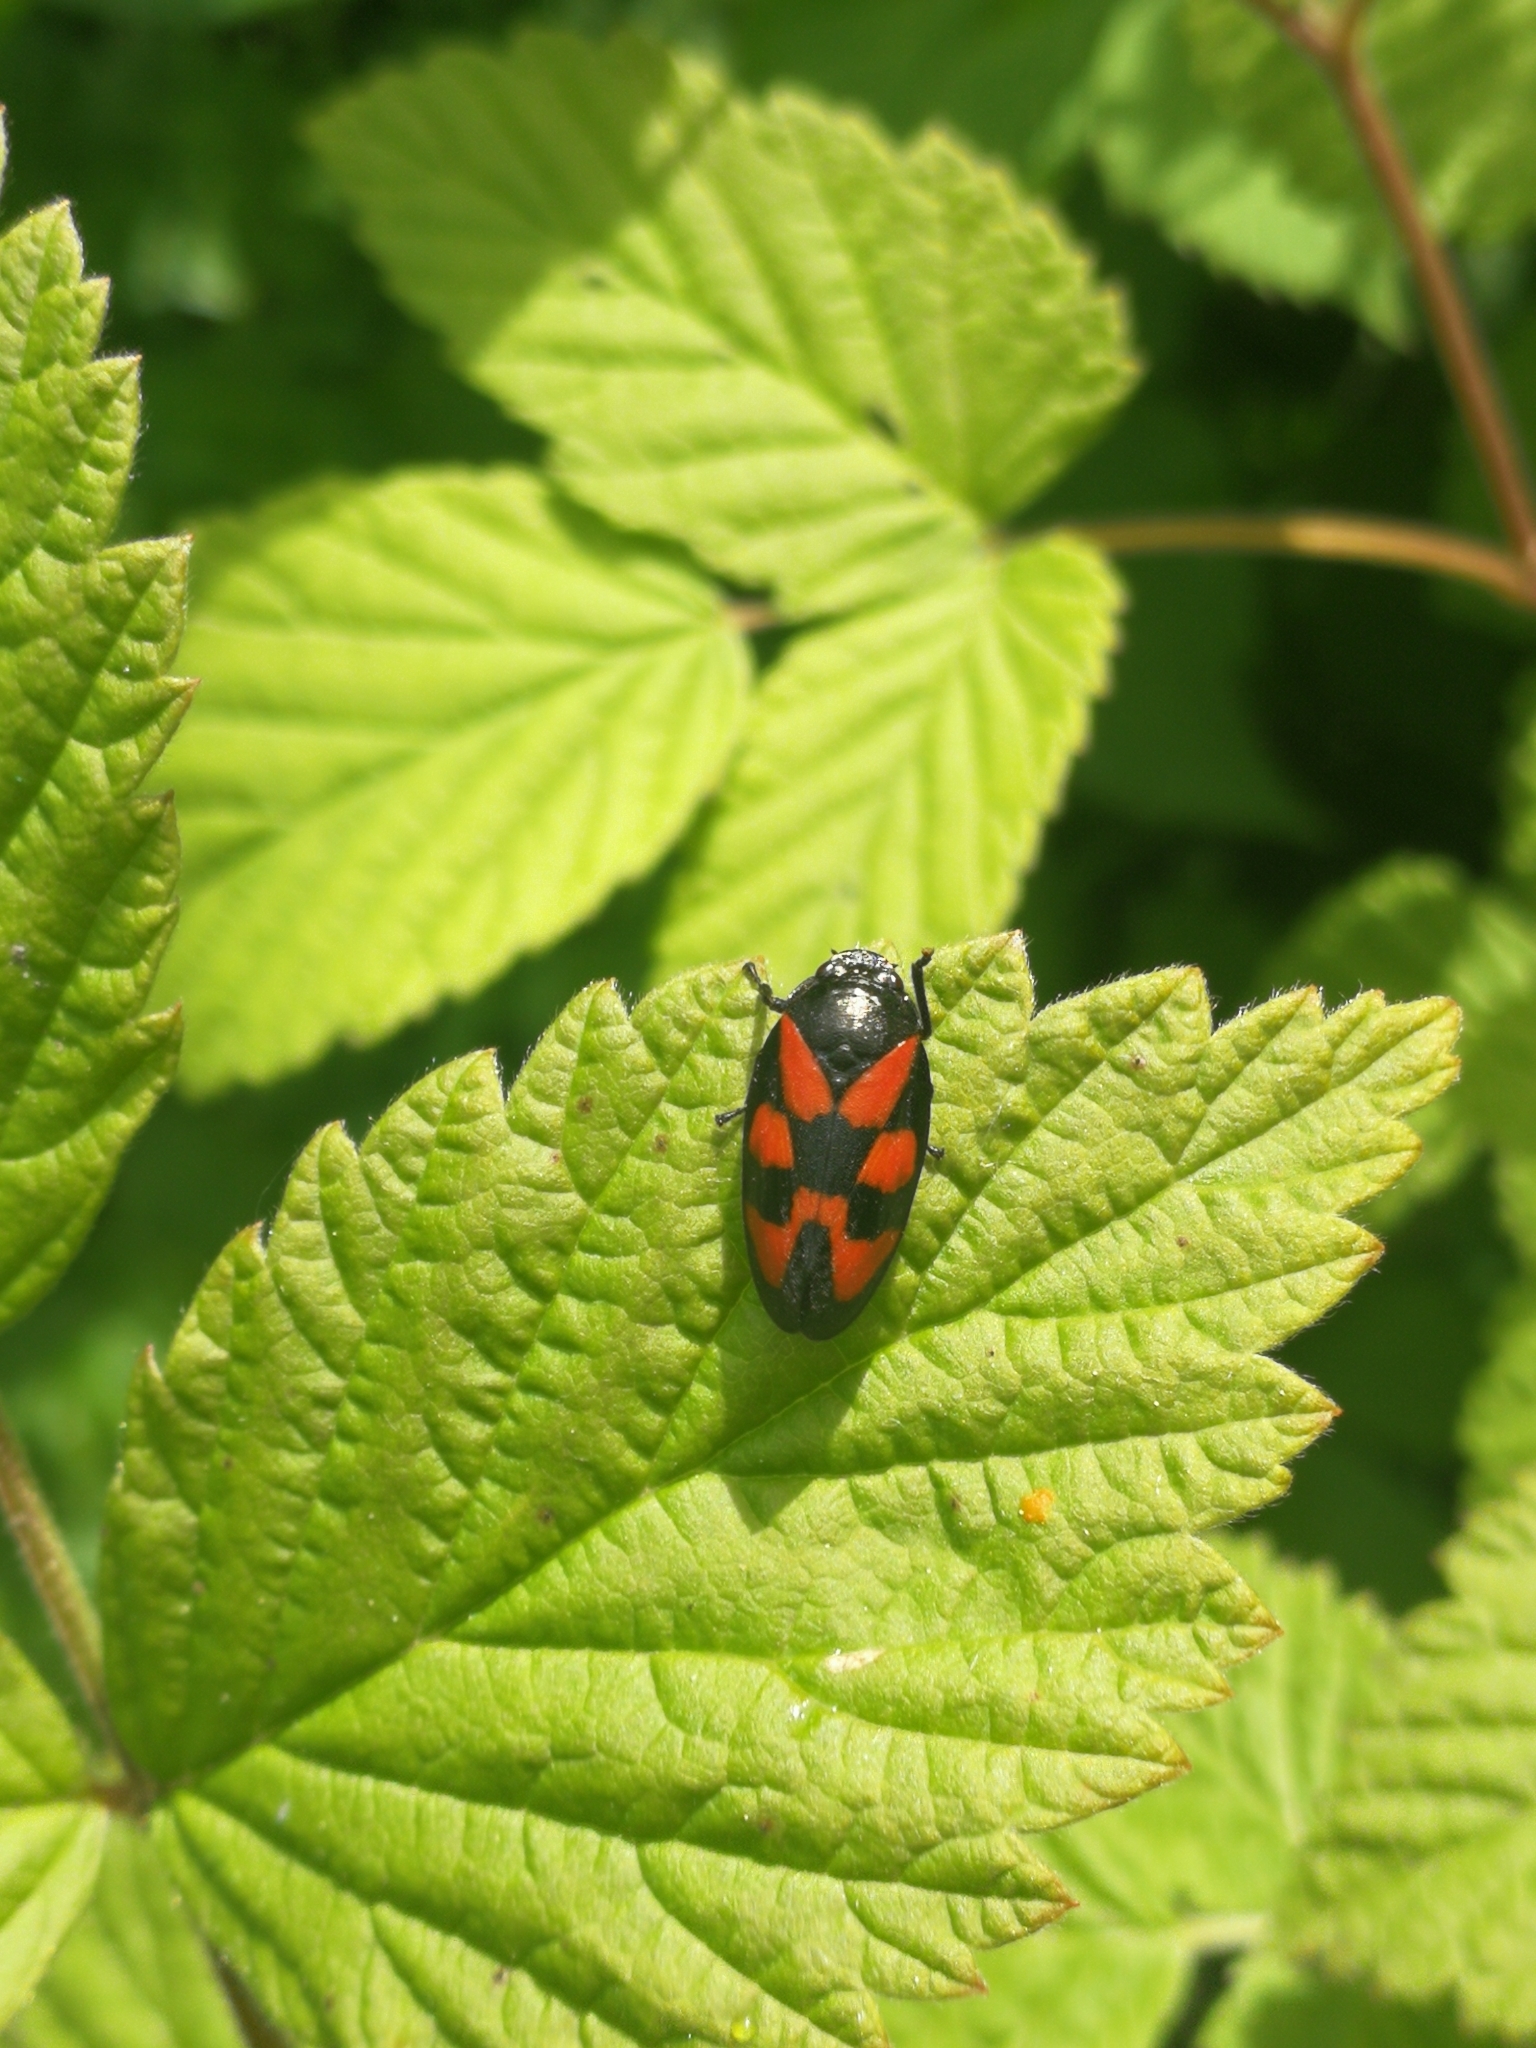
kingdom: Animalia
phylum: Arthropoda
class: Insecta
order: Hemiptera
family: Cercopidae
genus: Cercopis
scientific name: Cercopis vulnerata
